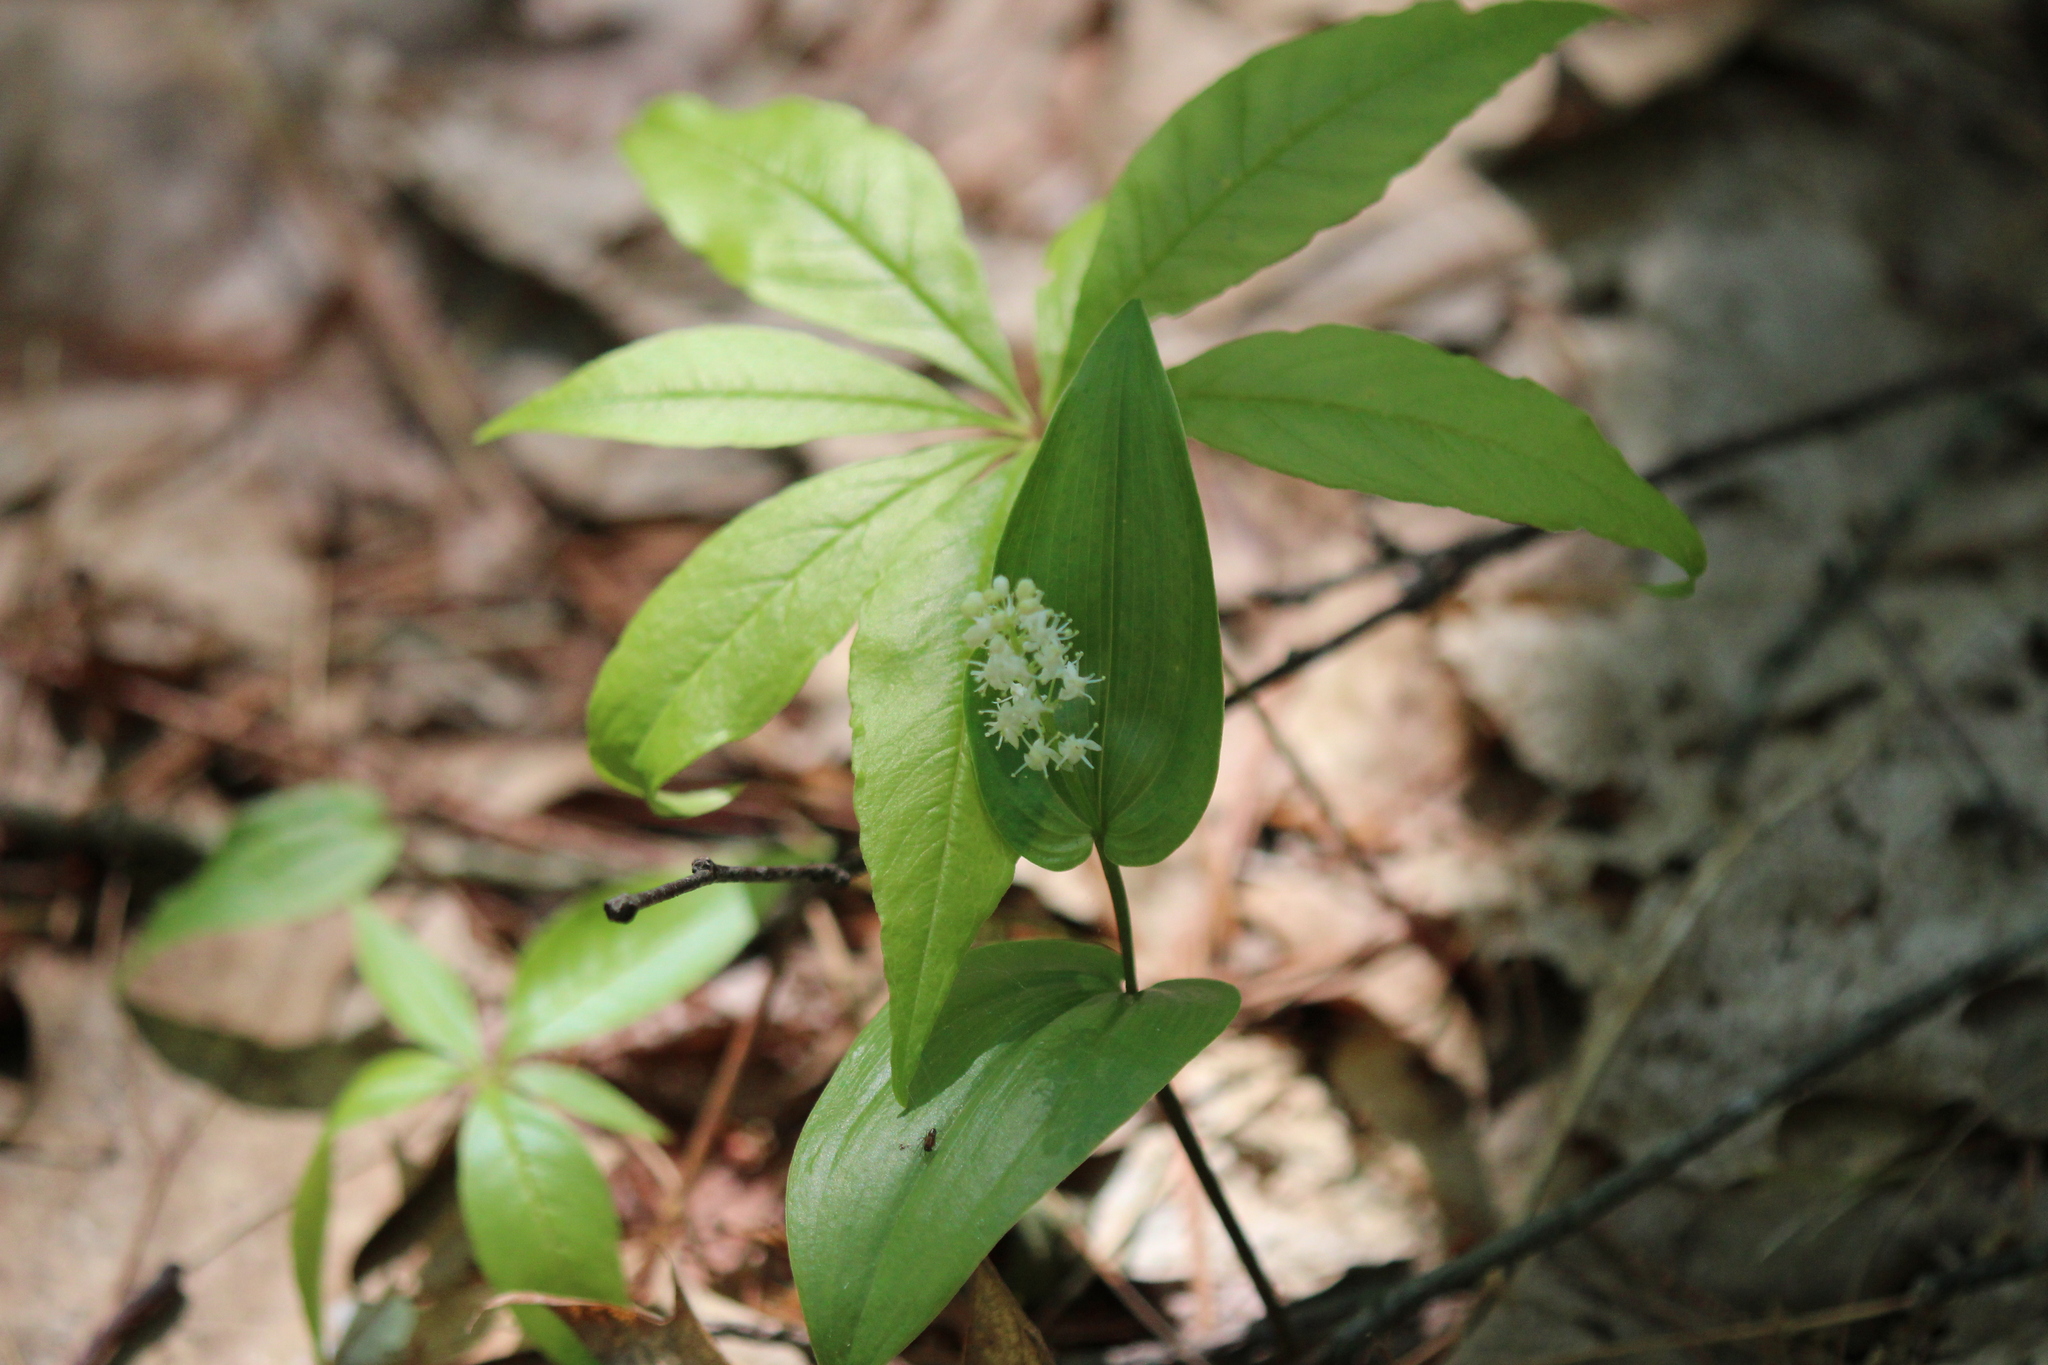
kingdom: Plantae
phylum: Tracheophyta
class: Liliopsida
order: Asparagales
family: Asparagaceae
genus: Maianthemum
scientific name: Maianthemum canadense
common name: False lily-of-the-valley
